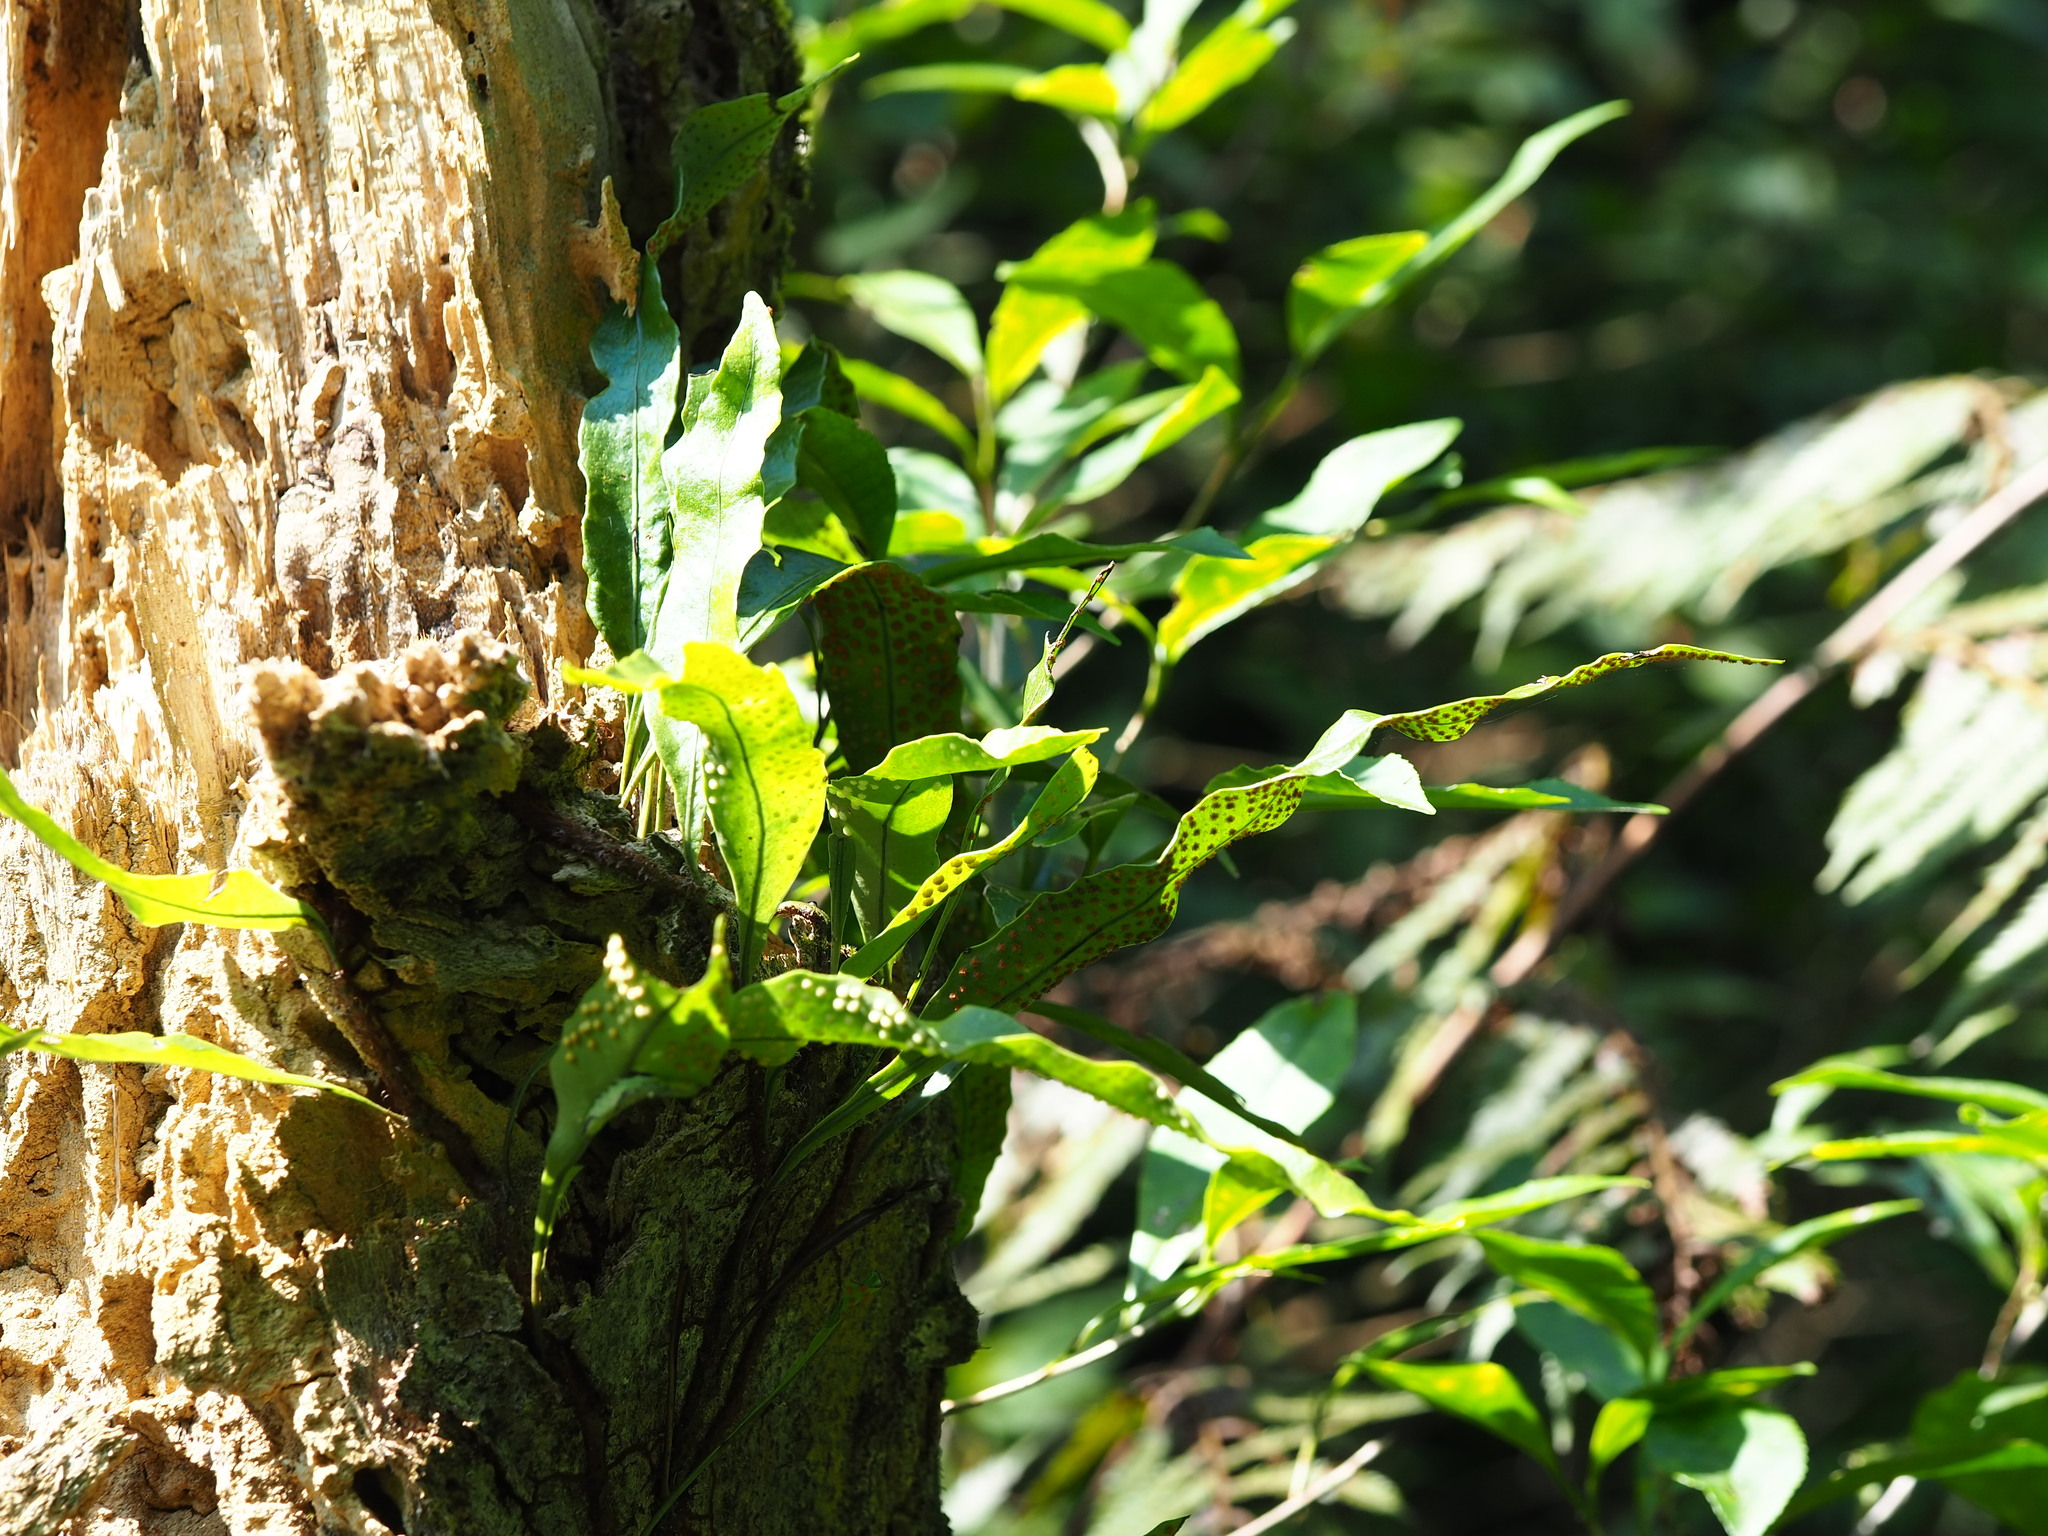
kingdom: Plantae
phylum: Tracheophyta
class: Polypodiopsida
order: Polypodiales
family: Polypodiaceae
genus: Lepisorus
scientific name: Lepisorus superficialis
